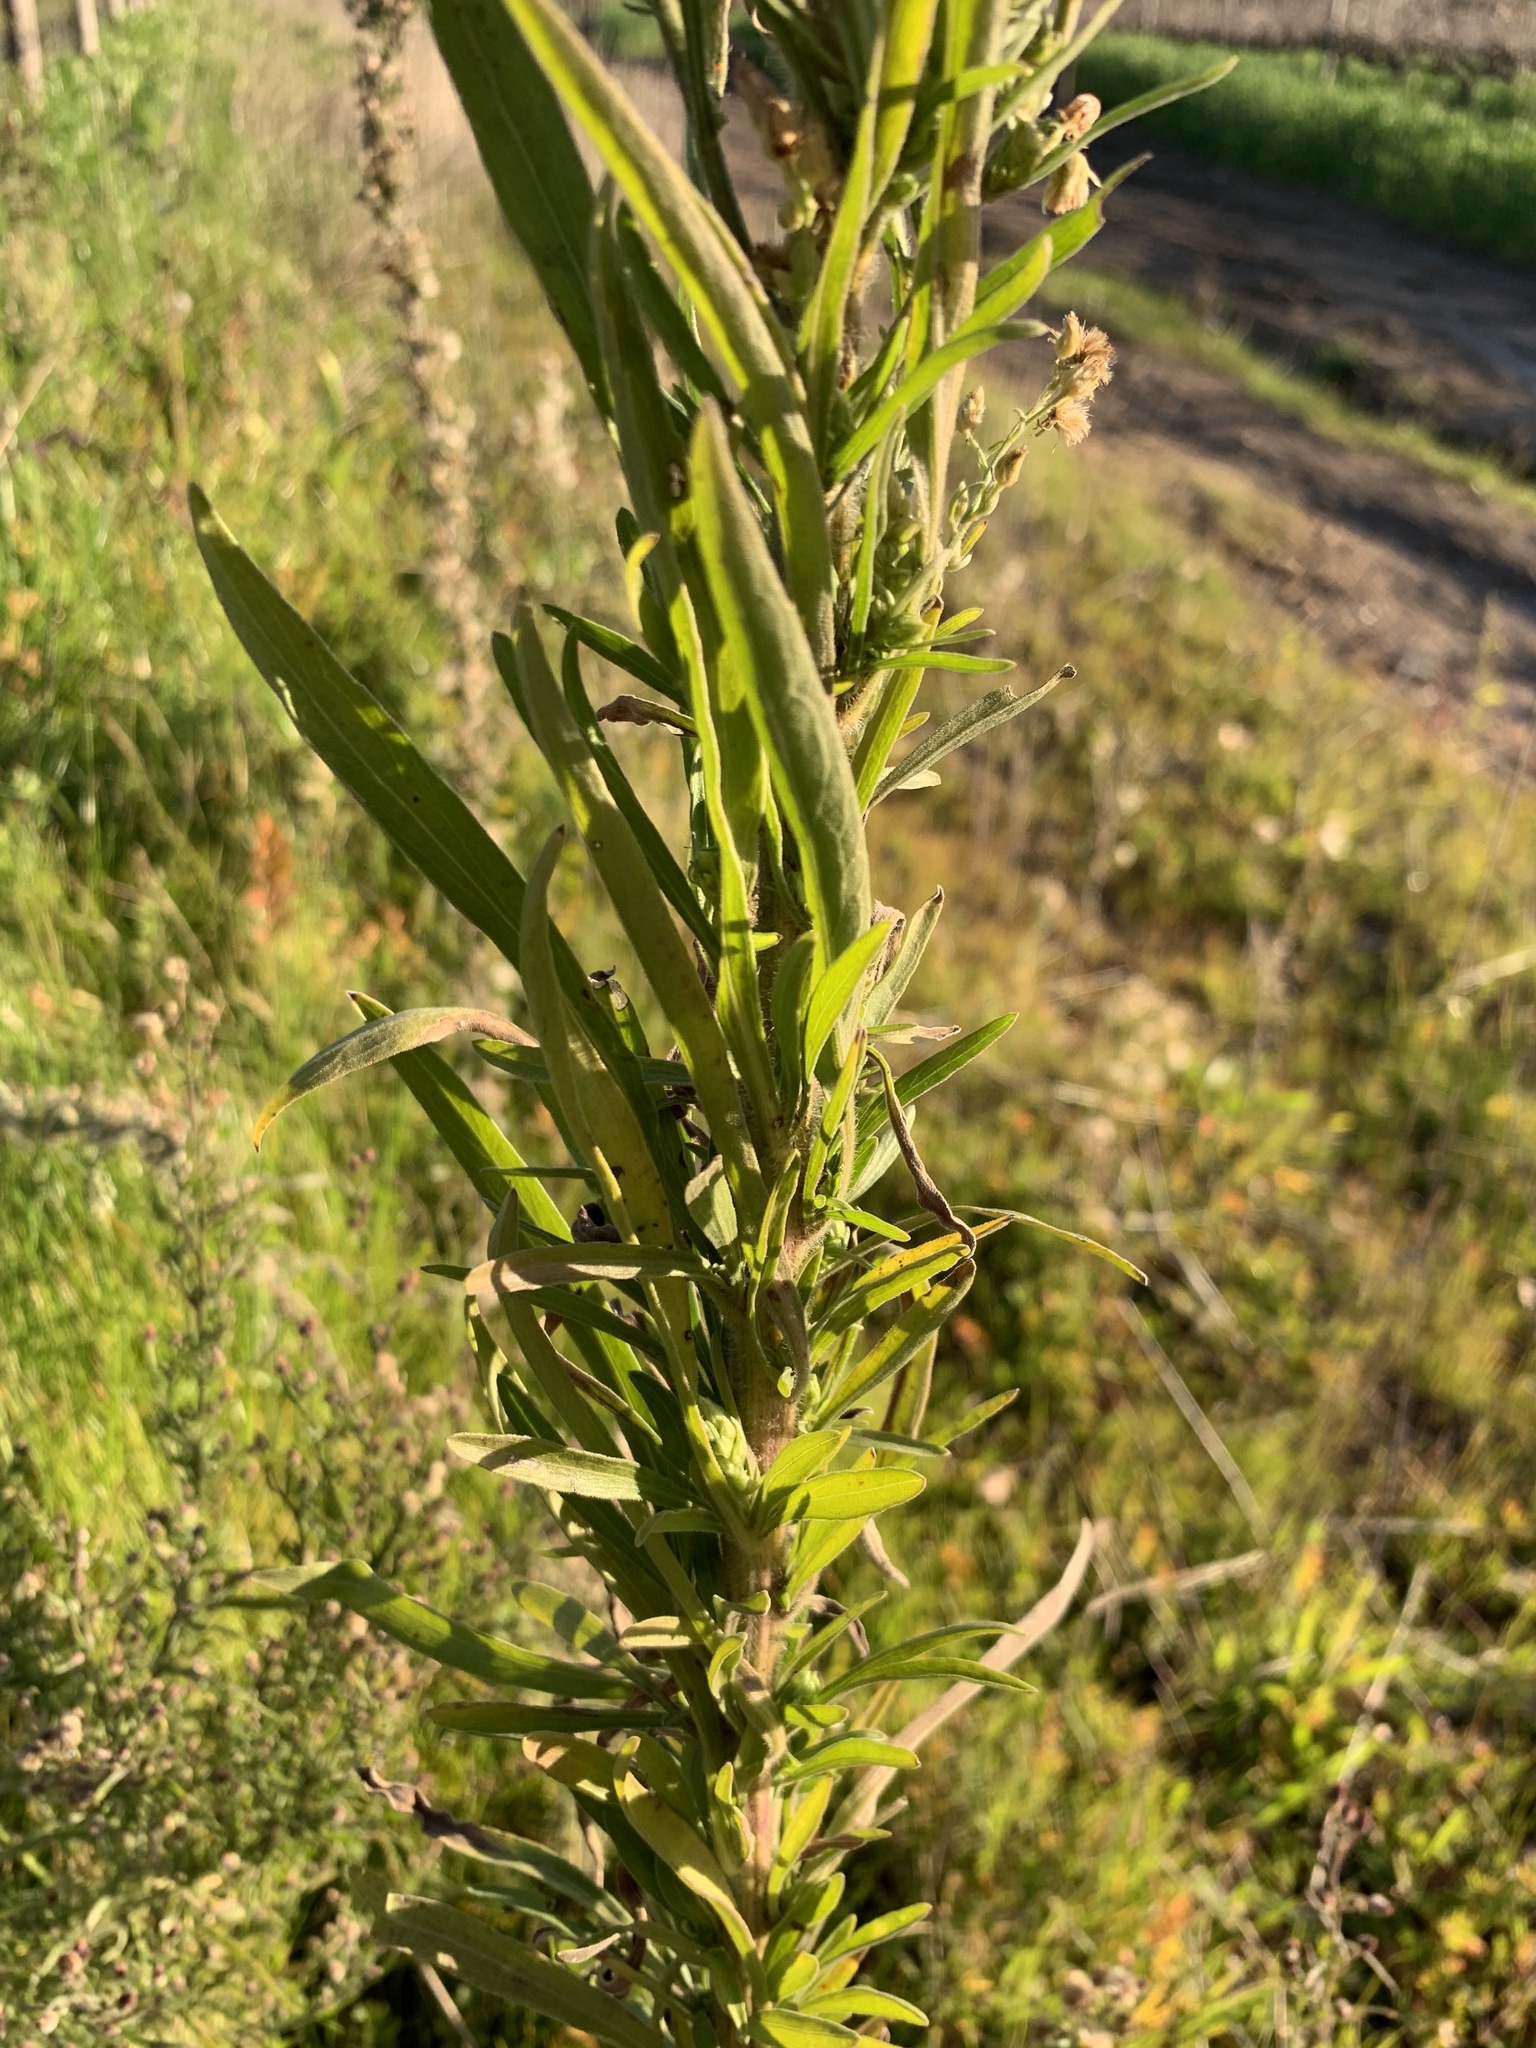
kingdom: Plantae
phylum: Tracheophyta
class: Magnoliopsida
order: Asterales
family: Asteraceae
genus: Erigeron
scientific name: Erigeron sumatrensis
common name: Daisy
